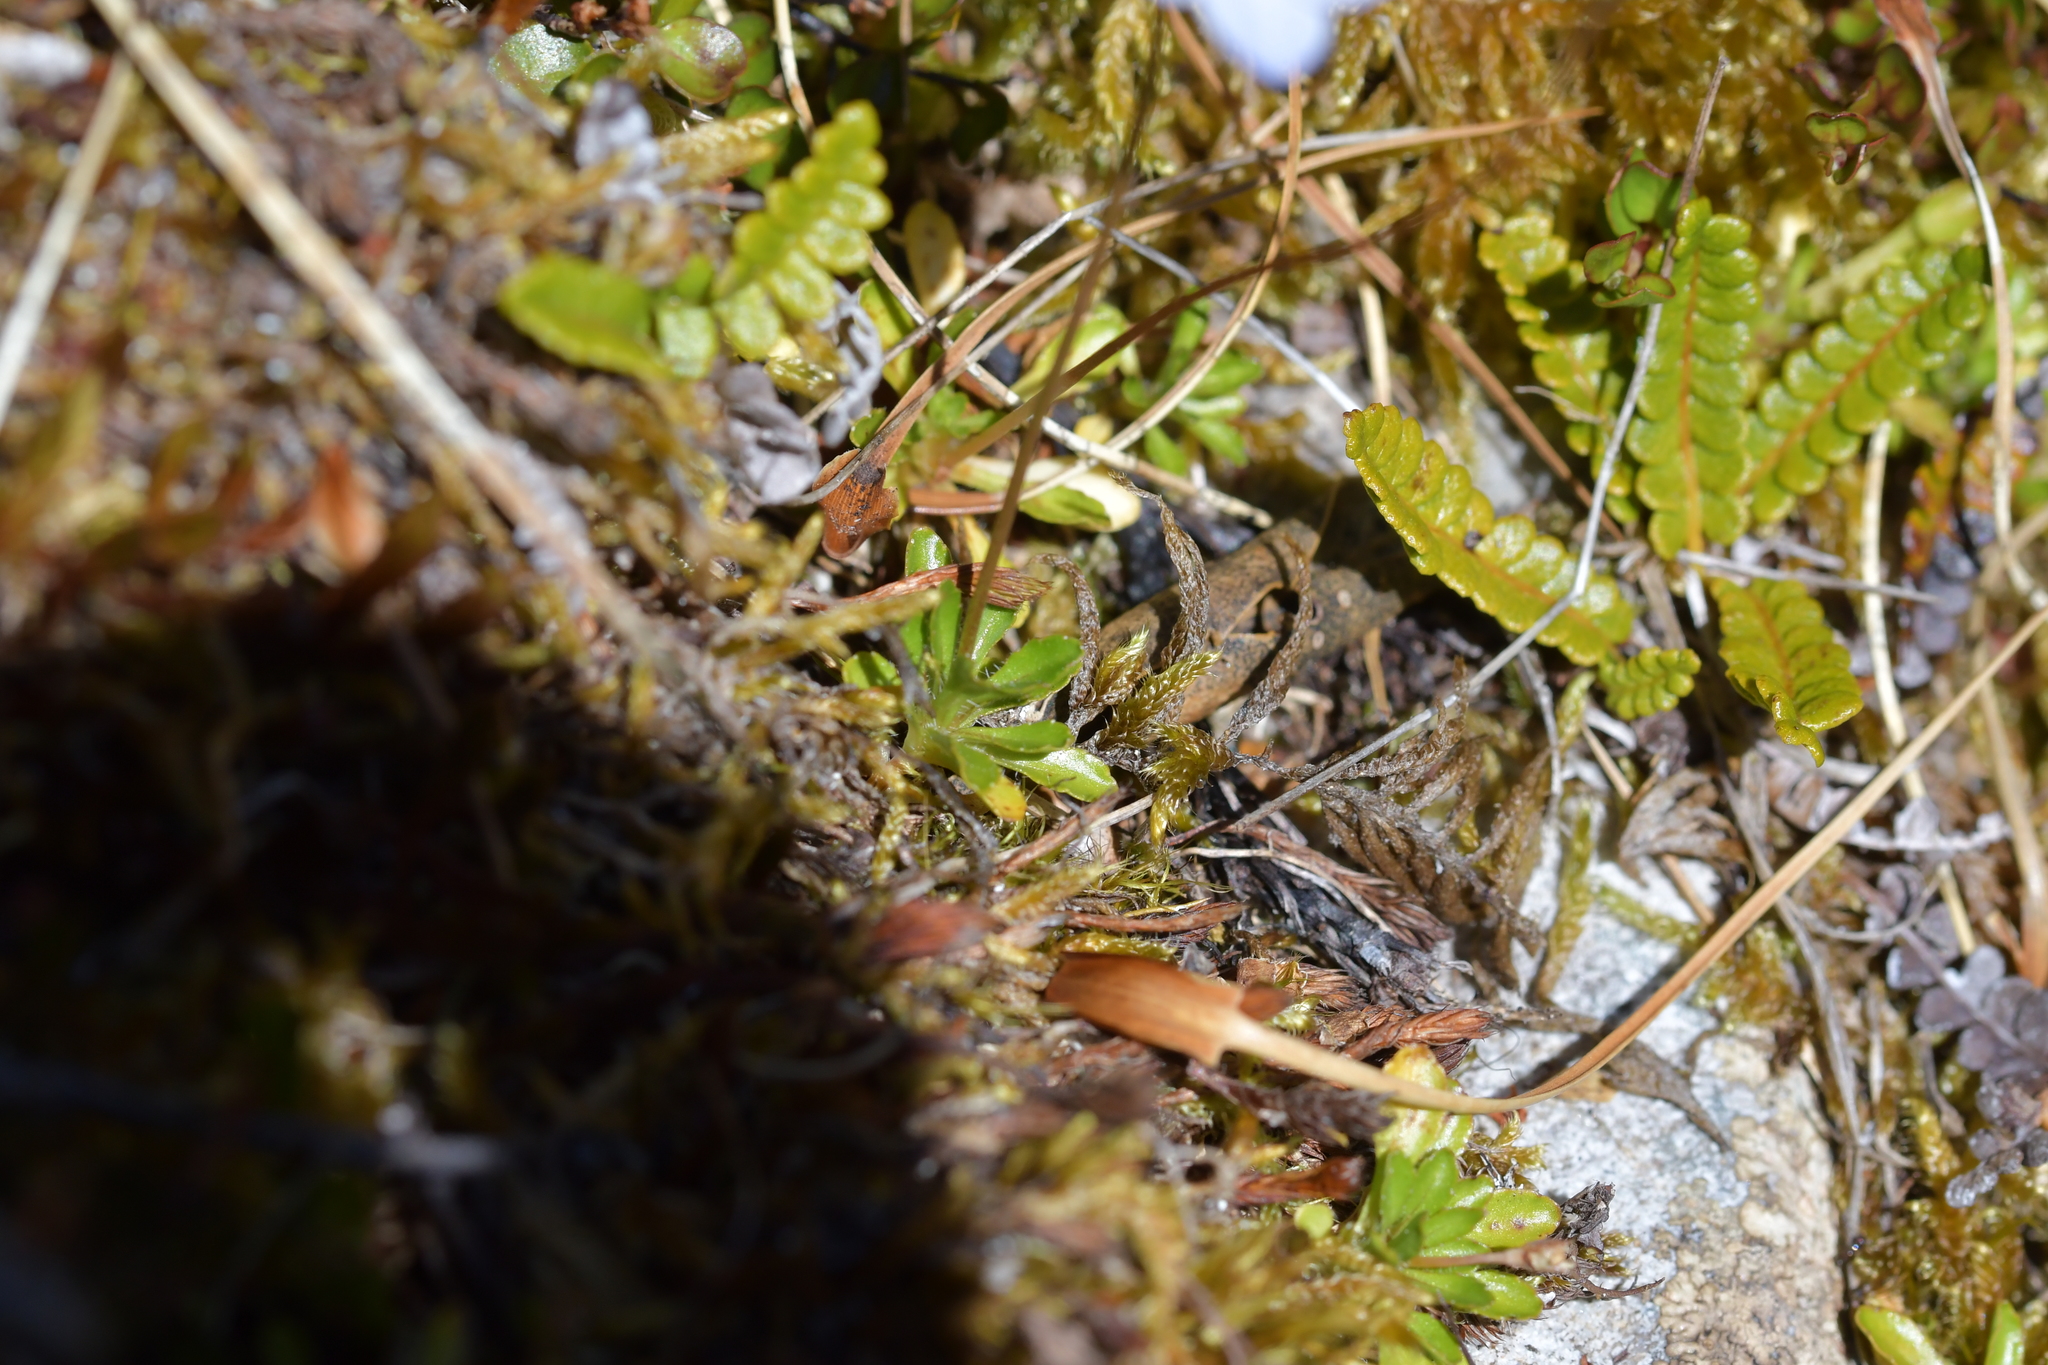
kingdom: Plantae
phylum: Tracheophyta
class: Magnoliopsida
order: Asterales
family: Campanulaceae
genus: Wahlenbergia
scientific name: Wahlenbergia albomarginata
